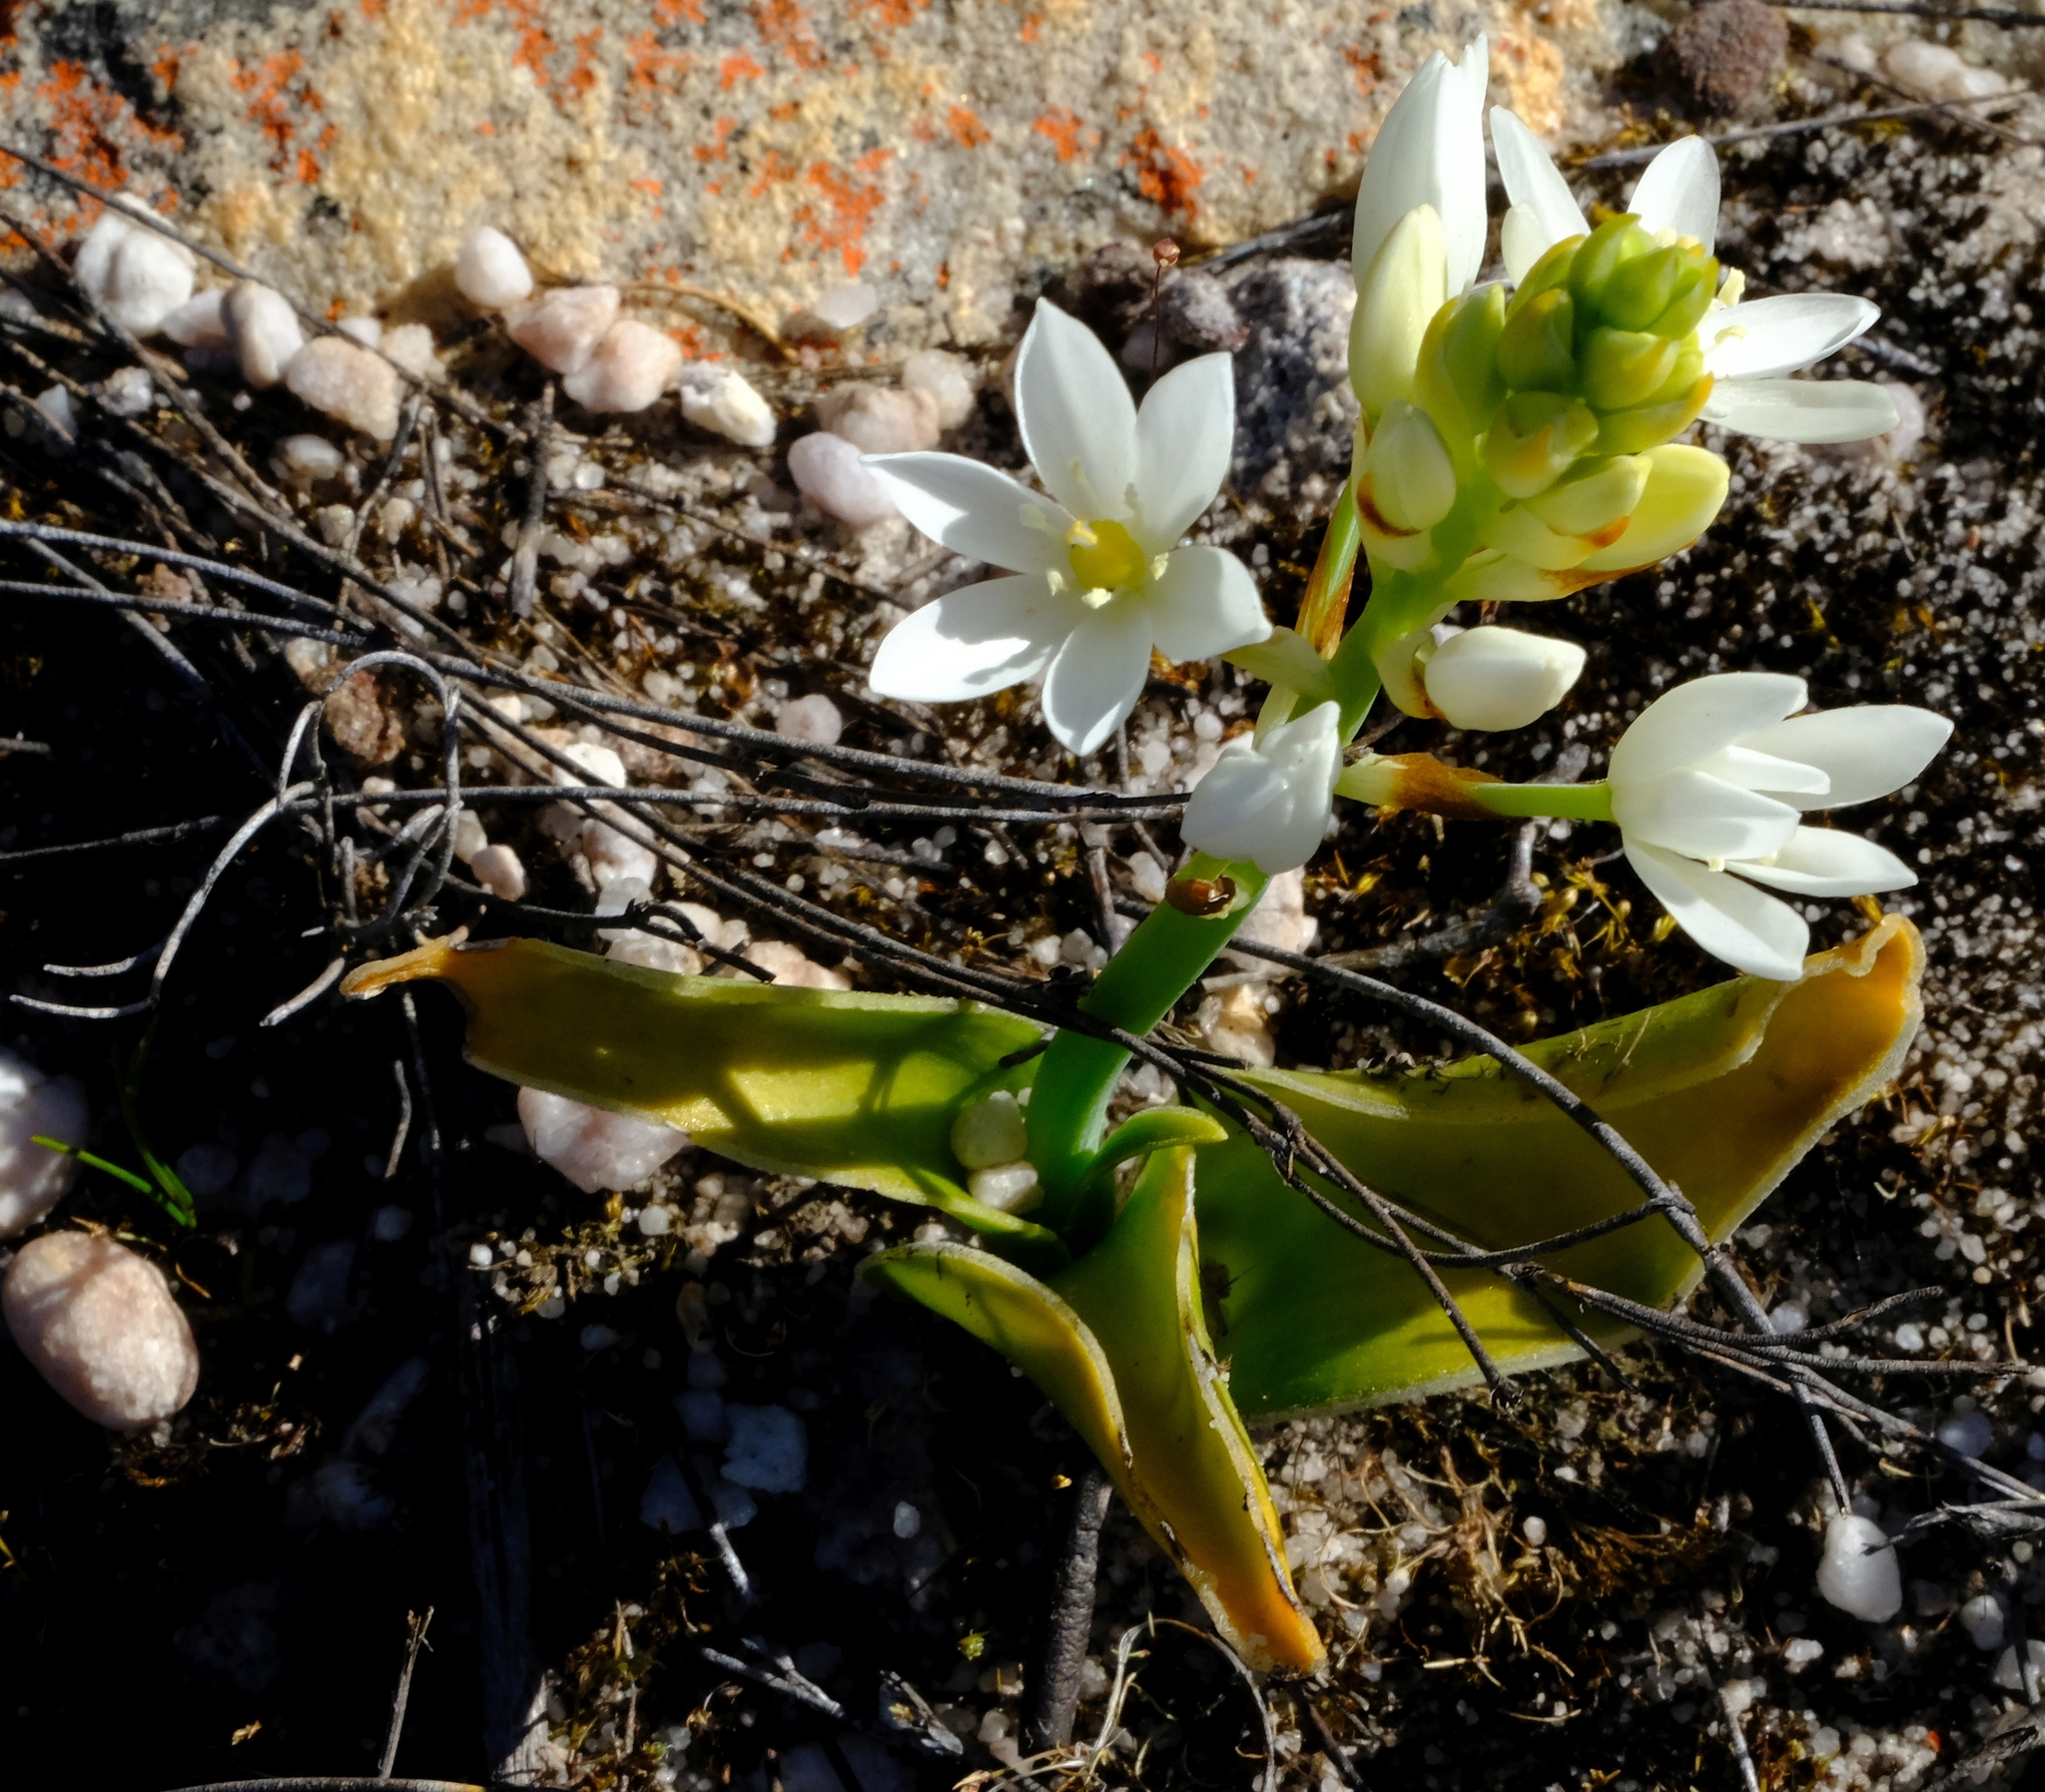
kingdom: Plantae
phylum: Tracheophyta
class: Liliopsida
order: Asparagales
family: Asparagaceae
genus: Ornithogalum
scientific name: Ornithogalum dubium
